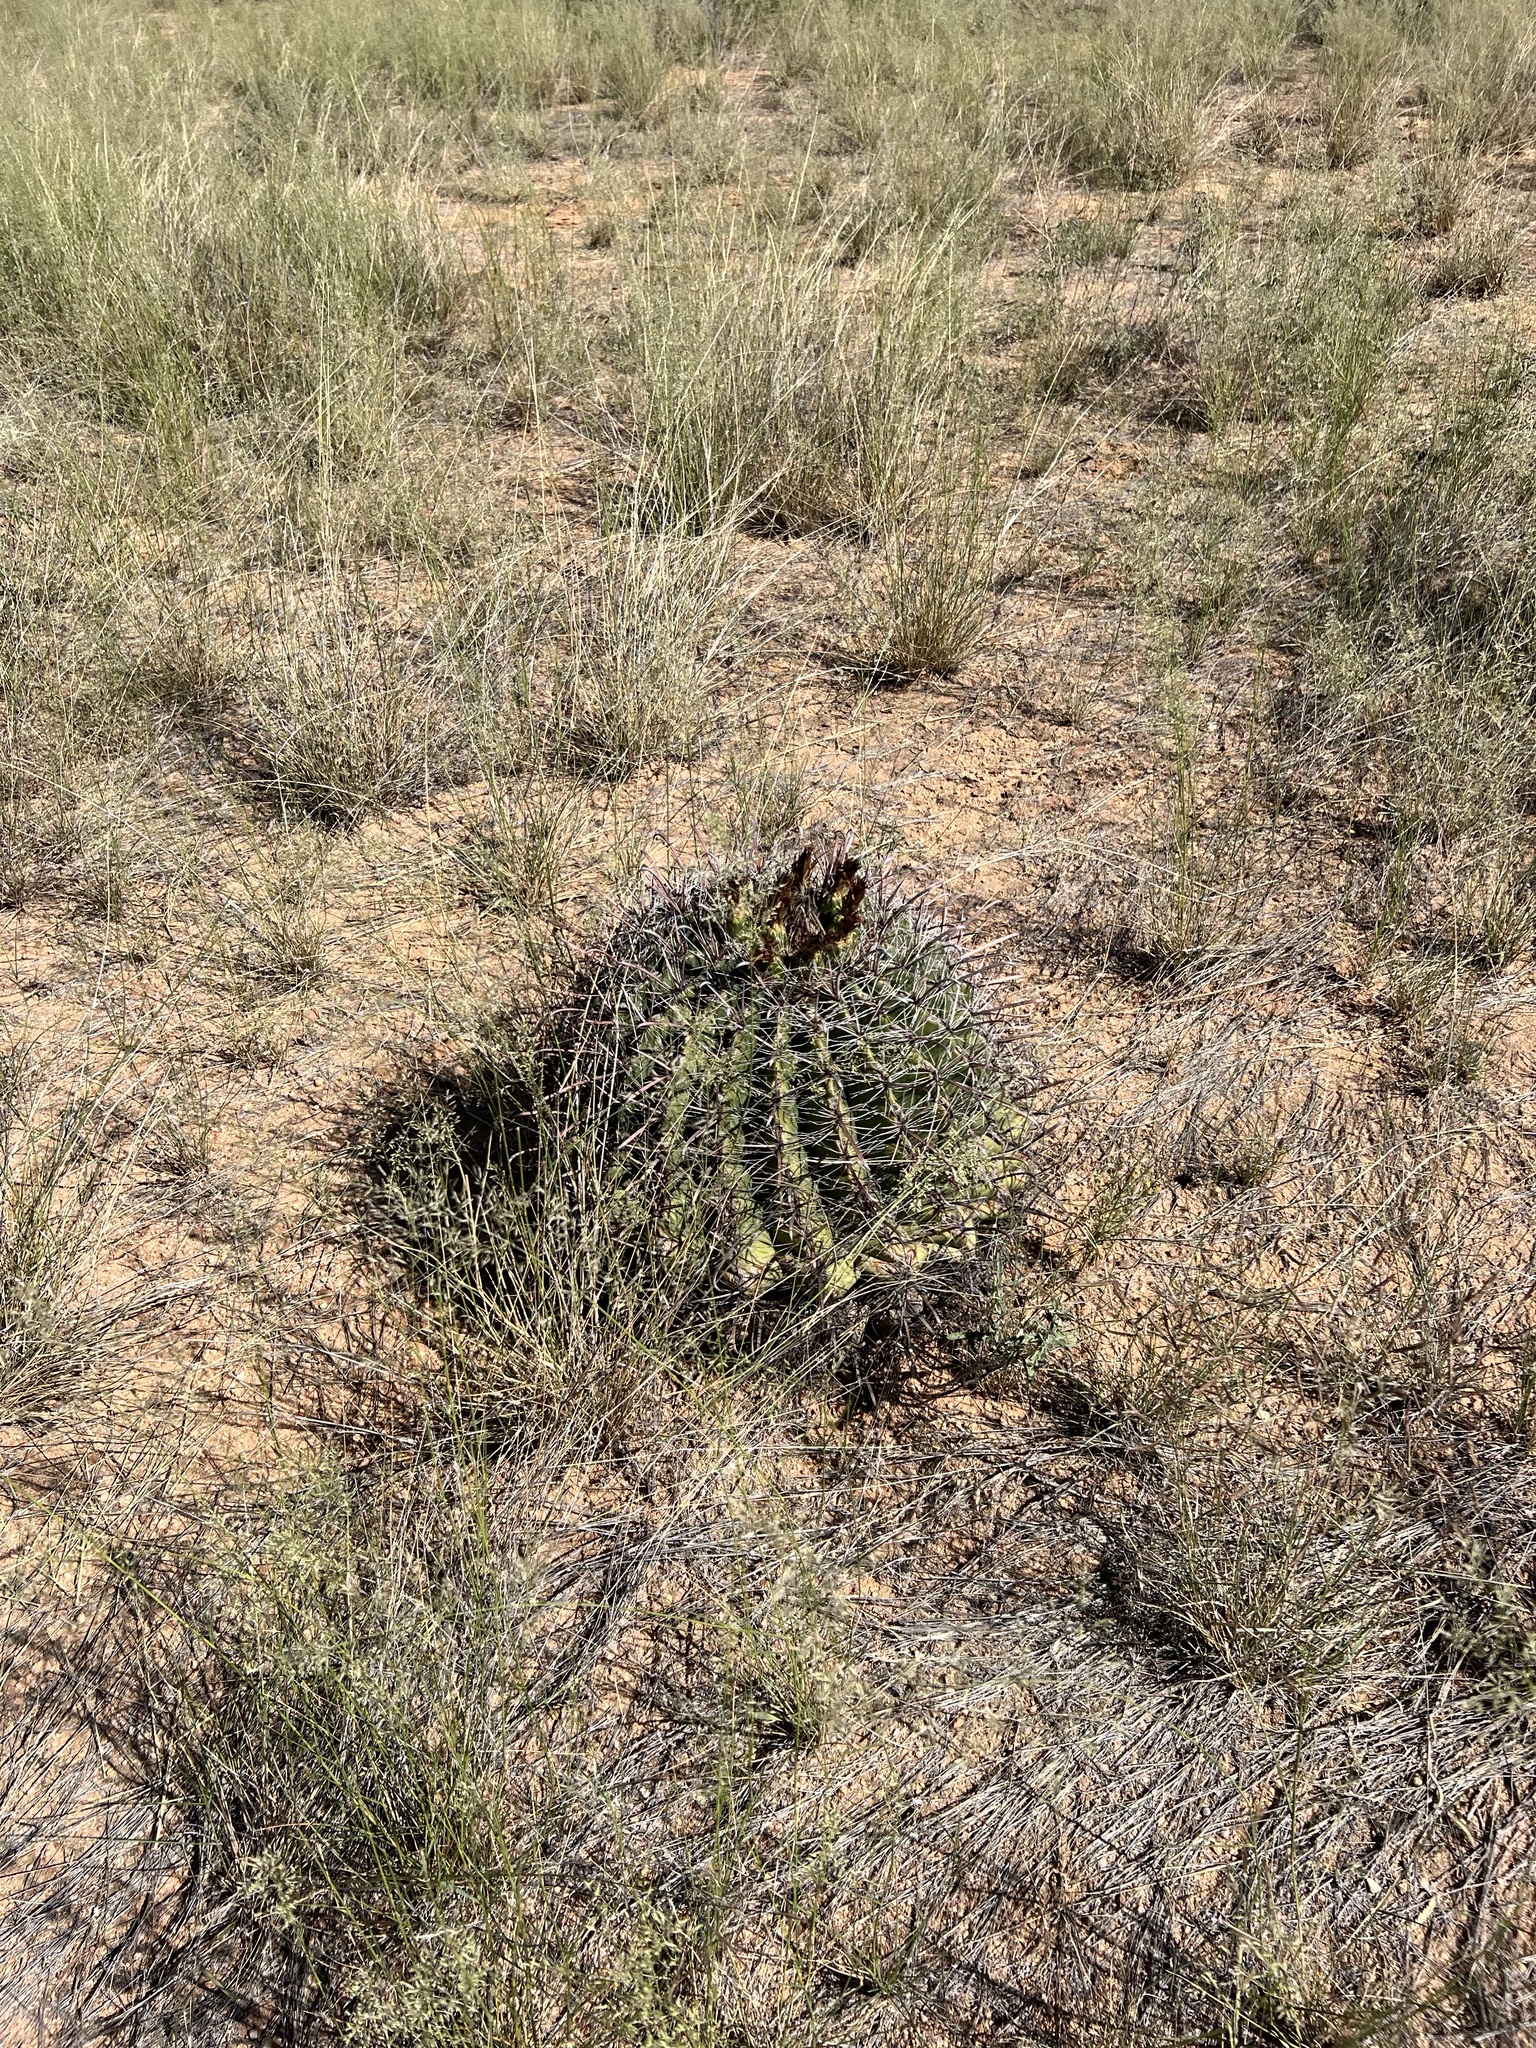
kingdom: Plantae
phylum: Tracheophyta
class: Magnoliopsida
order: Caryophyllales
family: Cactaceae
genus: Ferocactus
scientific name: Ferocactus wislizeni
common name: Candy barrel cactus
